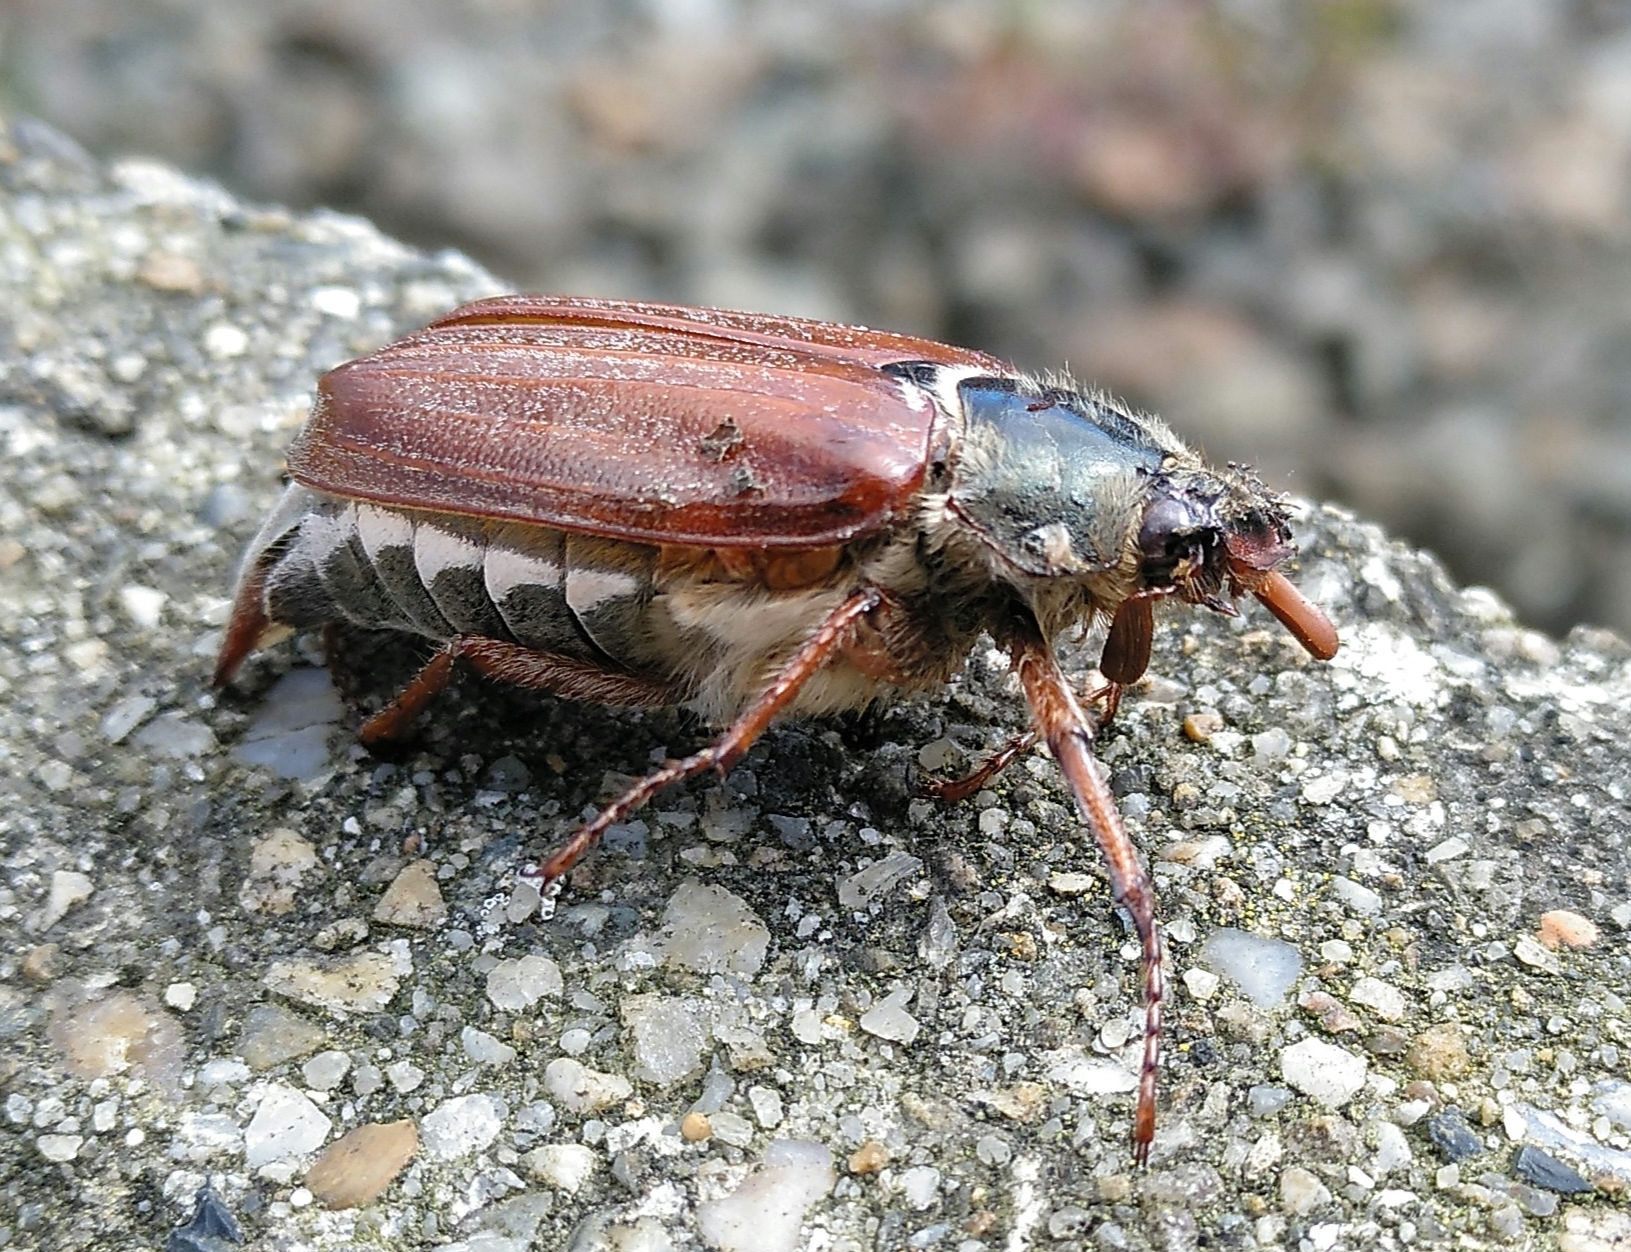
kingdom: Animalia
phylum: Arthropoda
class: Insecta
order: Coleoptera
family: Scarabaeidae
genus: Melolontha
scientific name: Melolontha melolontha
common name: Cockchafer maybeetle
